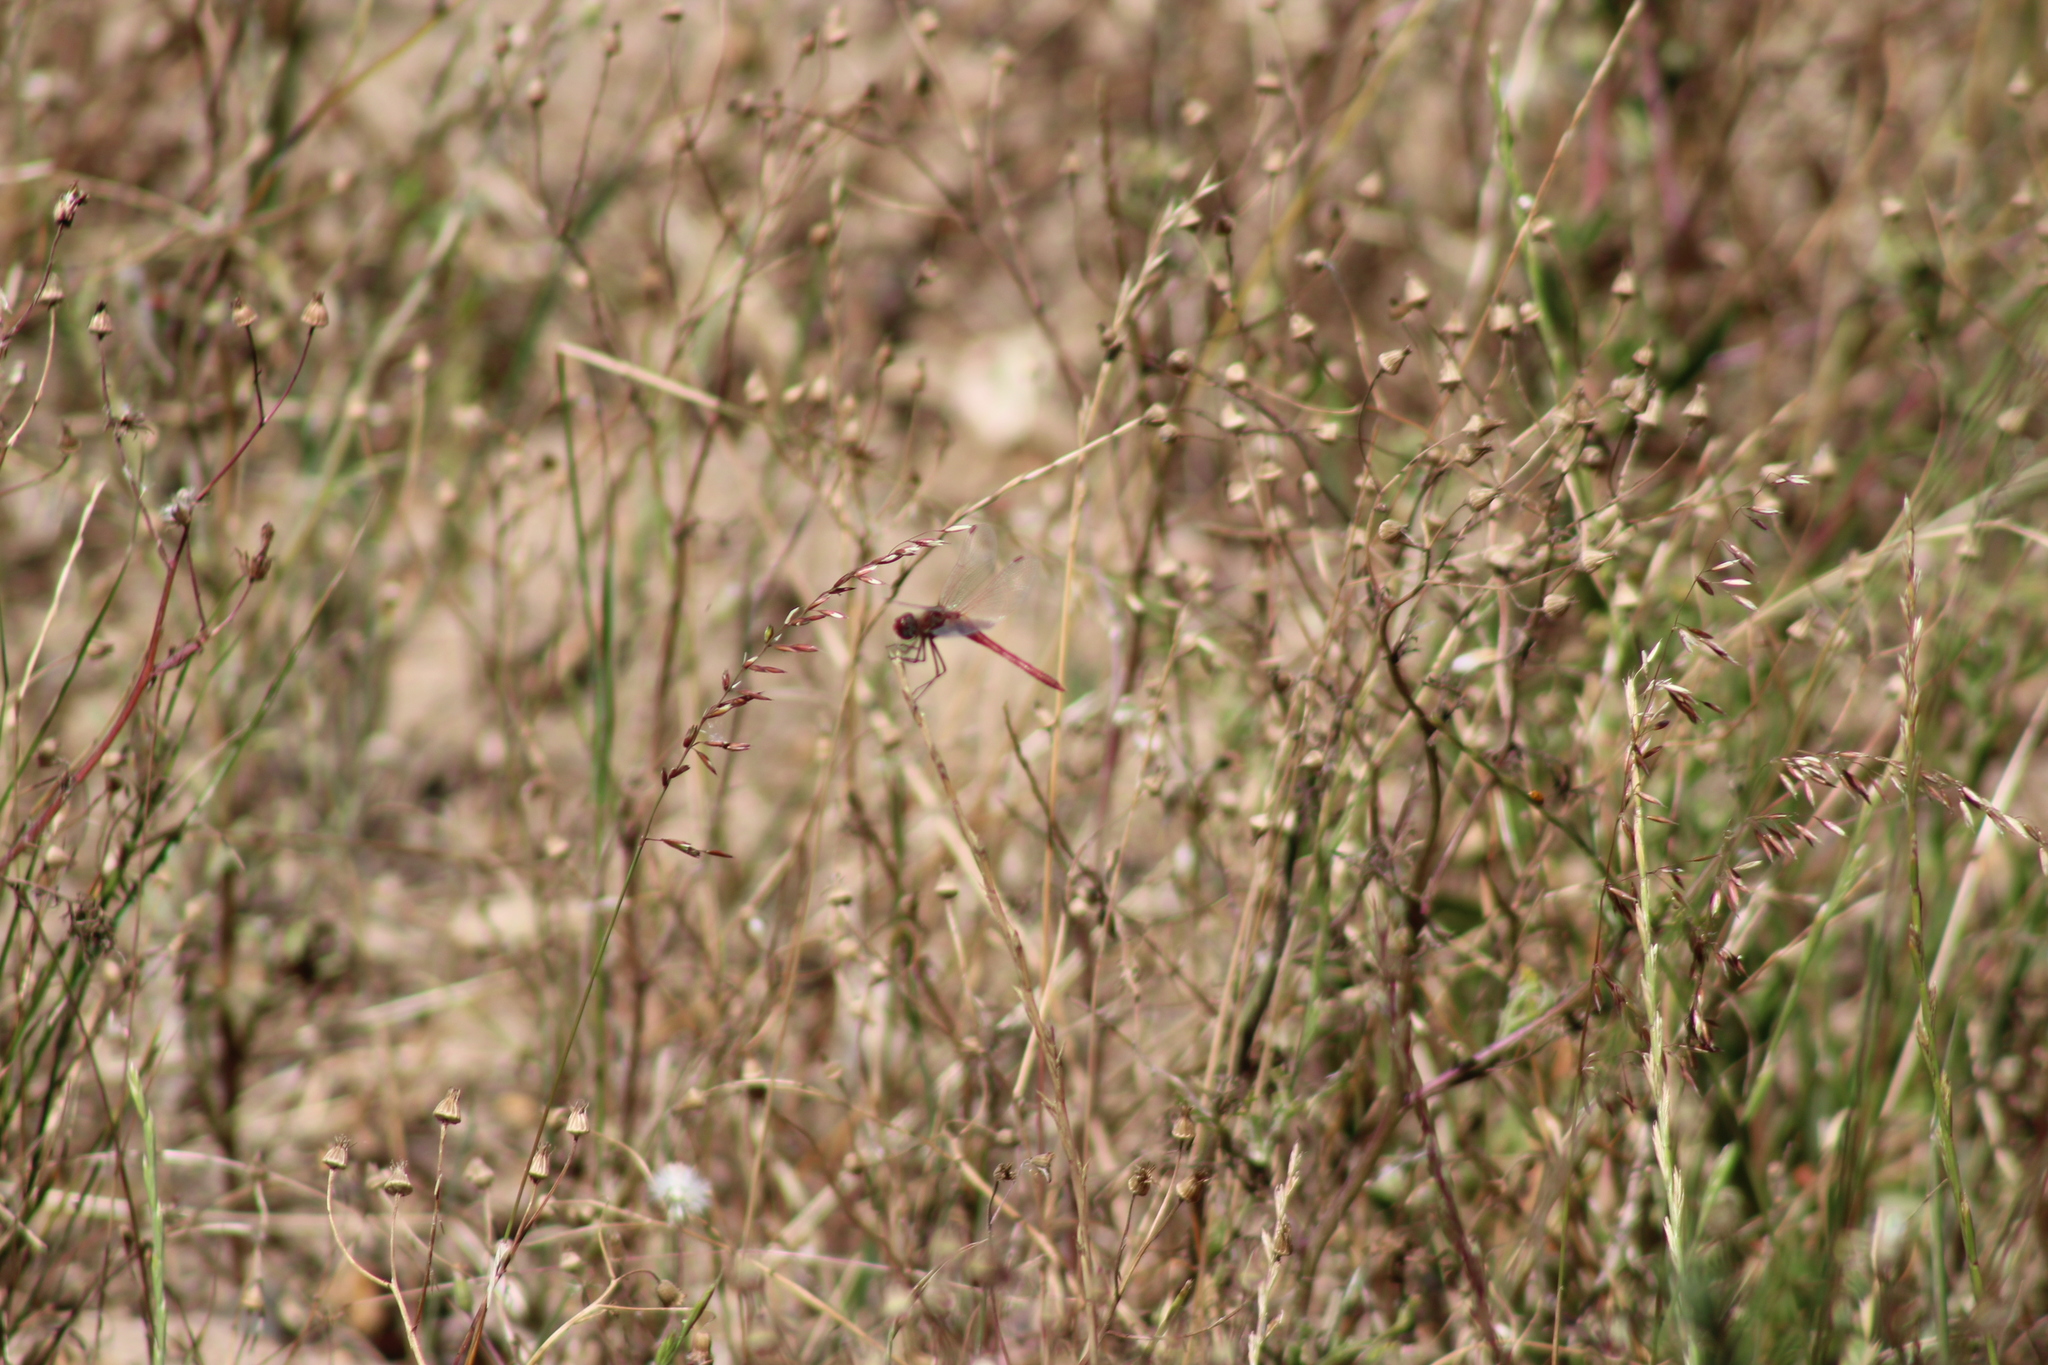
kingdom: Animalia
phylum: Arthropoda
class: Insecta
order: Odonata
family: Libellulidae
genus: Sympetrum
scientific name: Sympetrum fonscolombii
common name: Red-veined darter
